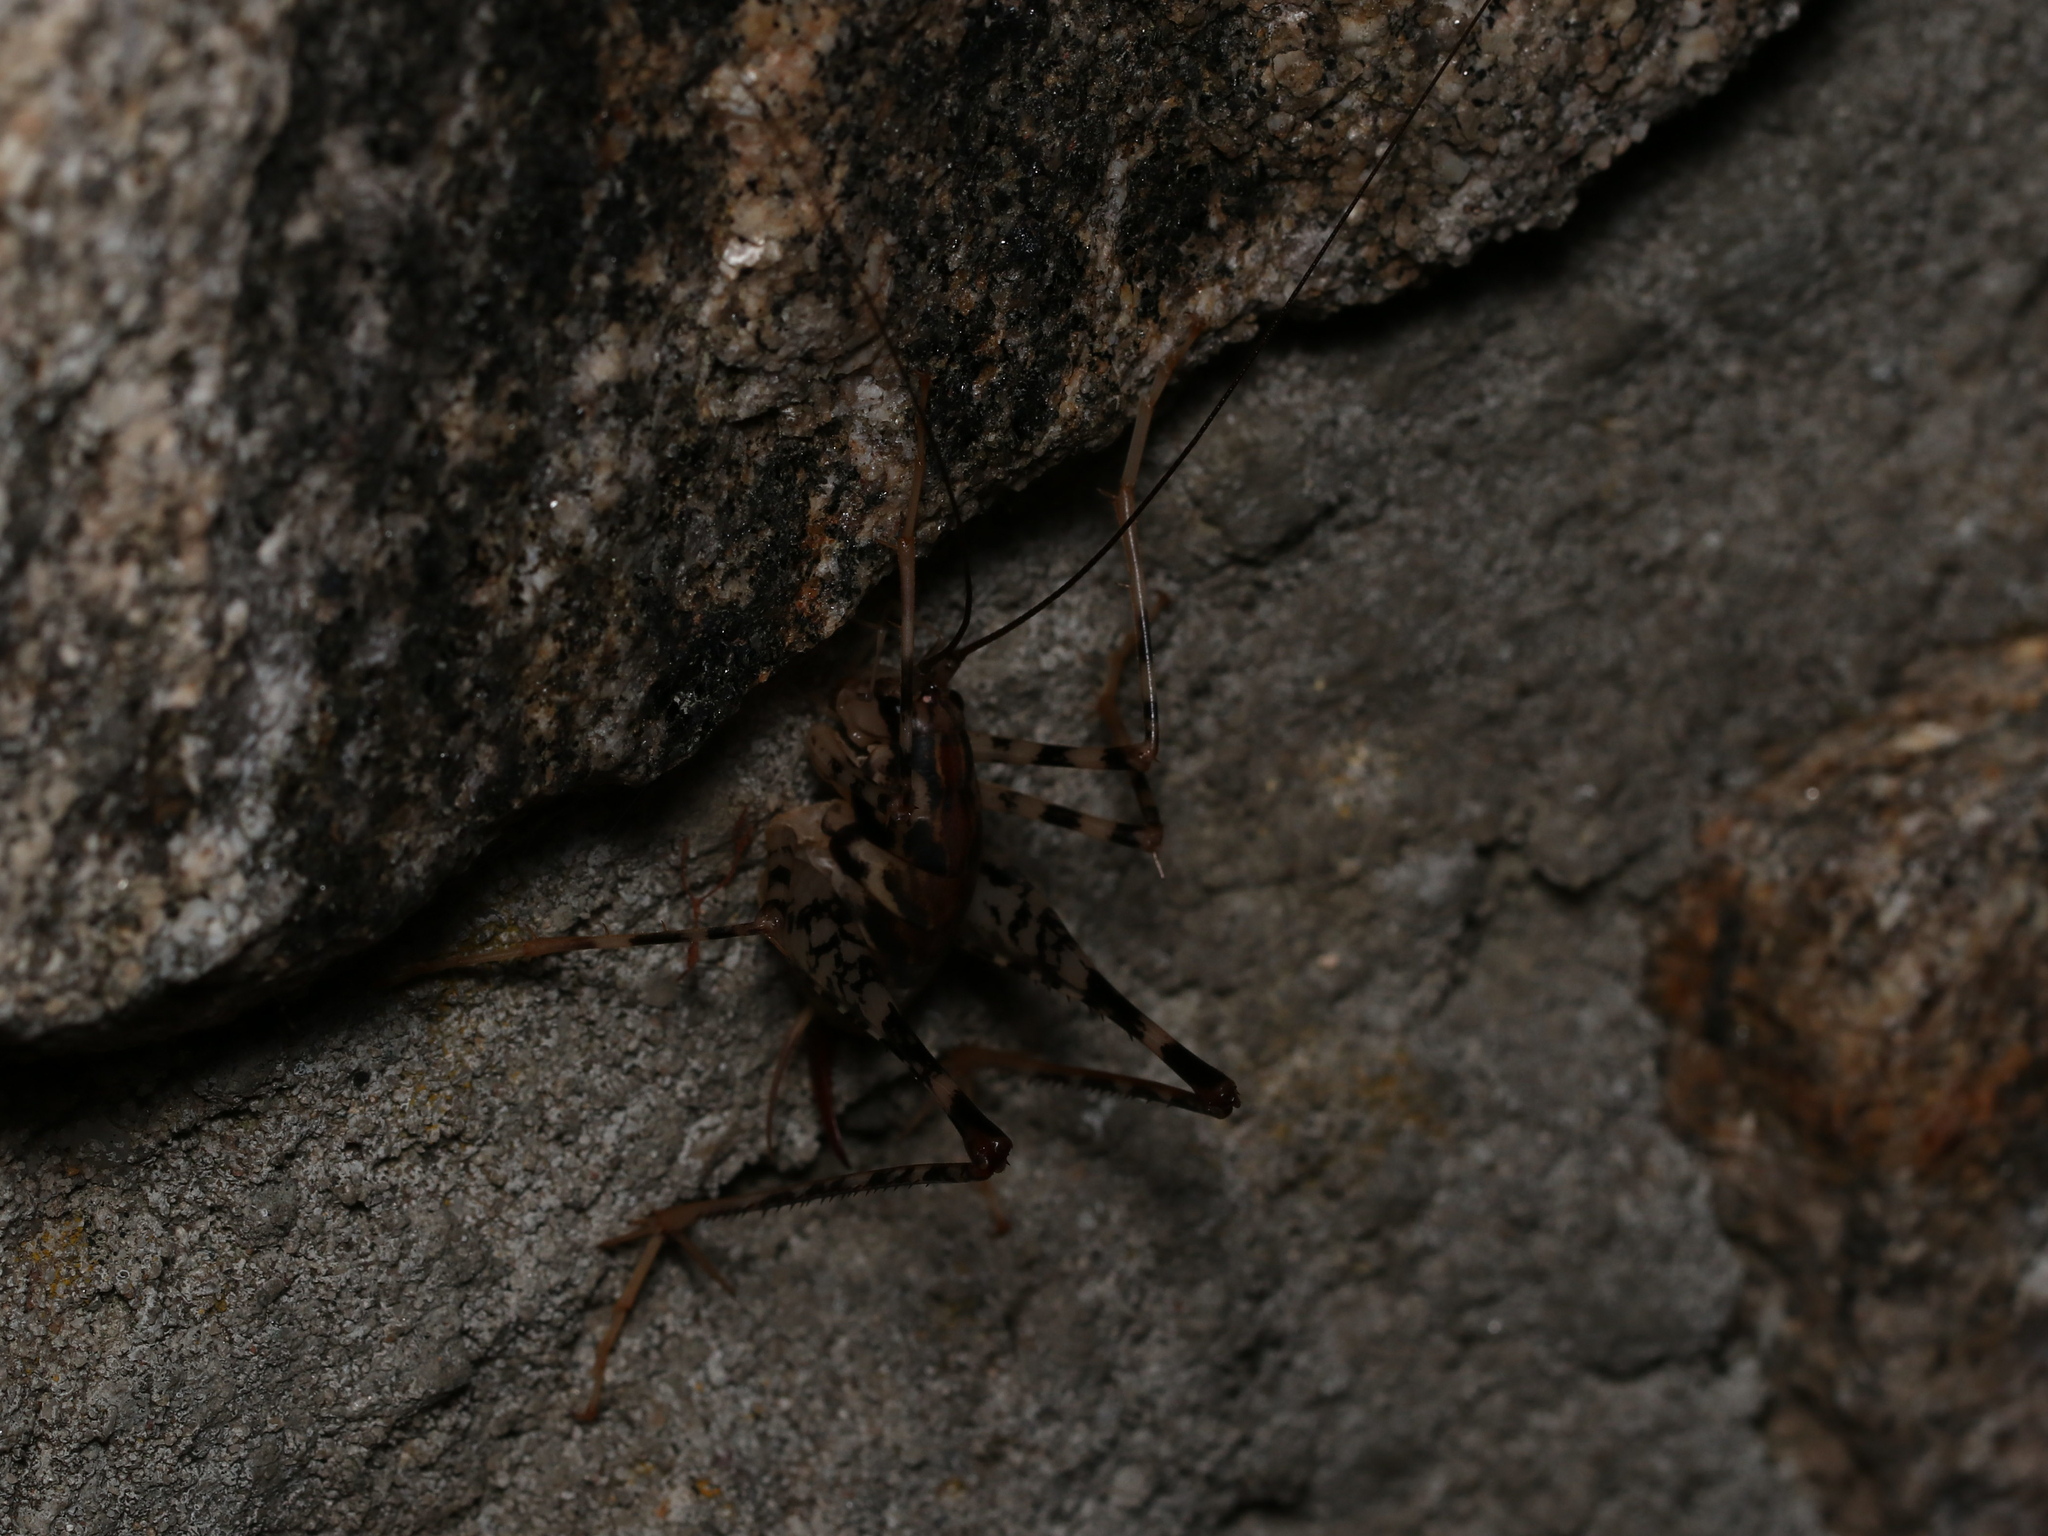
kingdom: Animalia
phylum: Arthropoda
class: Insecta
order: Orthoptera
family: Rhaphidophoridae
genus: Diestrammena
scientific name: Diestrammena japanica
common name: Japanese camel cricket
